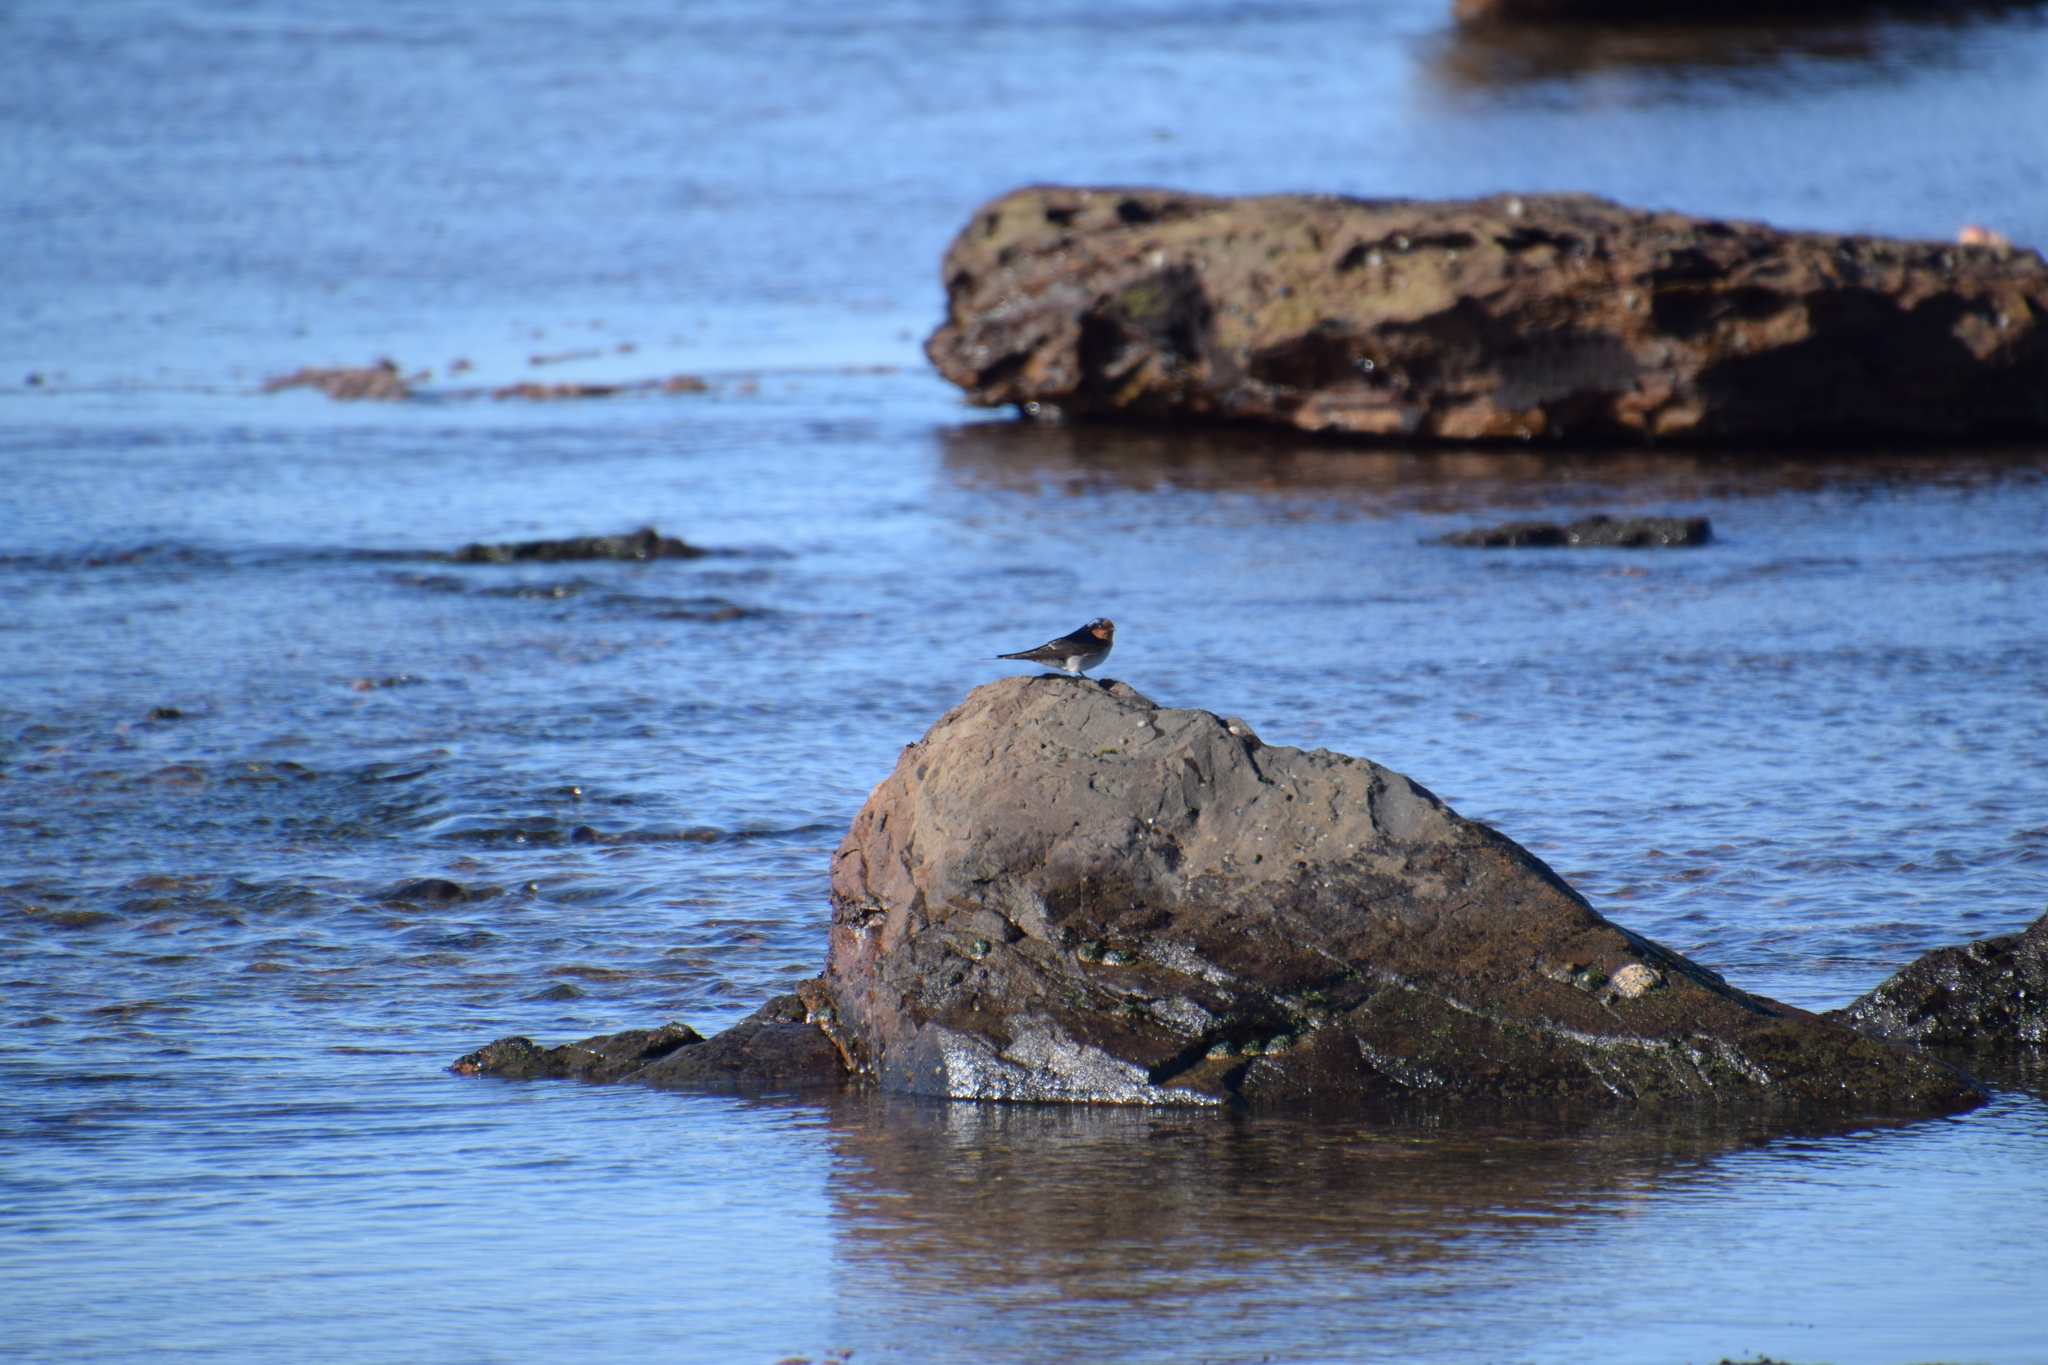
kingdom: Animalia
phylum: Chordata
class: Aves
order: Passeriformes
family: Hirundinidae
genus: Hirundo
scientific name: Hirundo neoxena
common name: Welcome swallow
